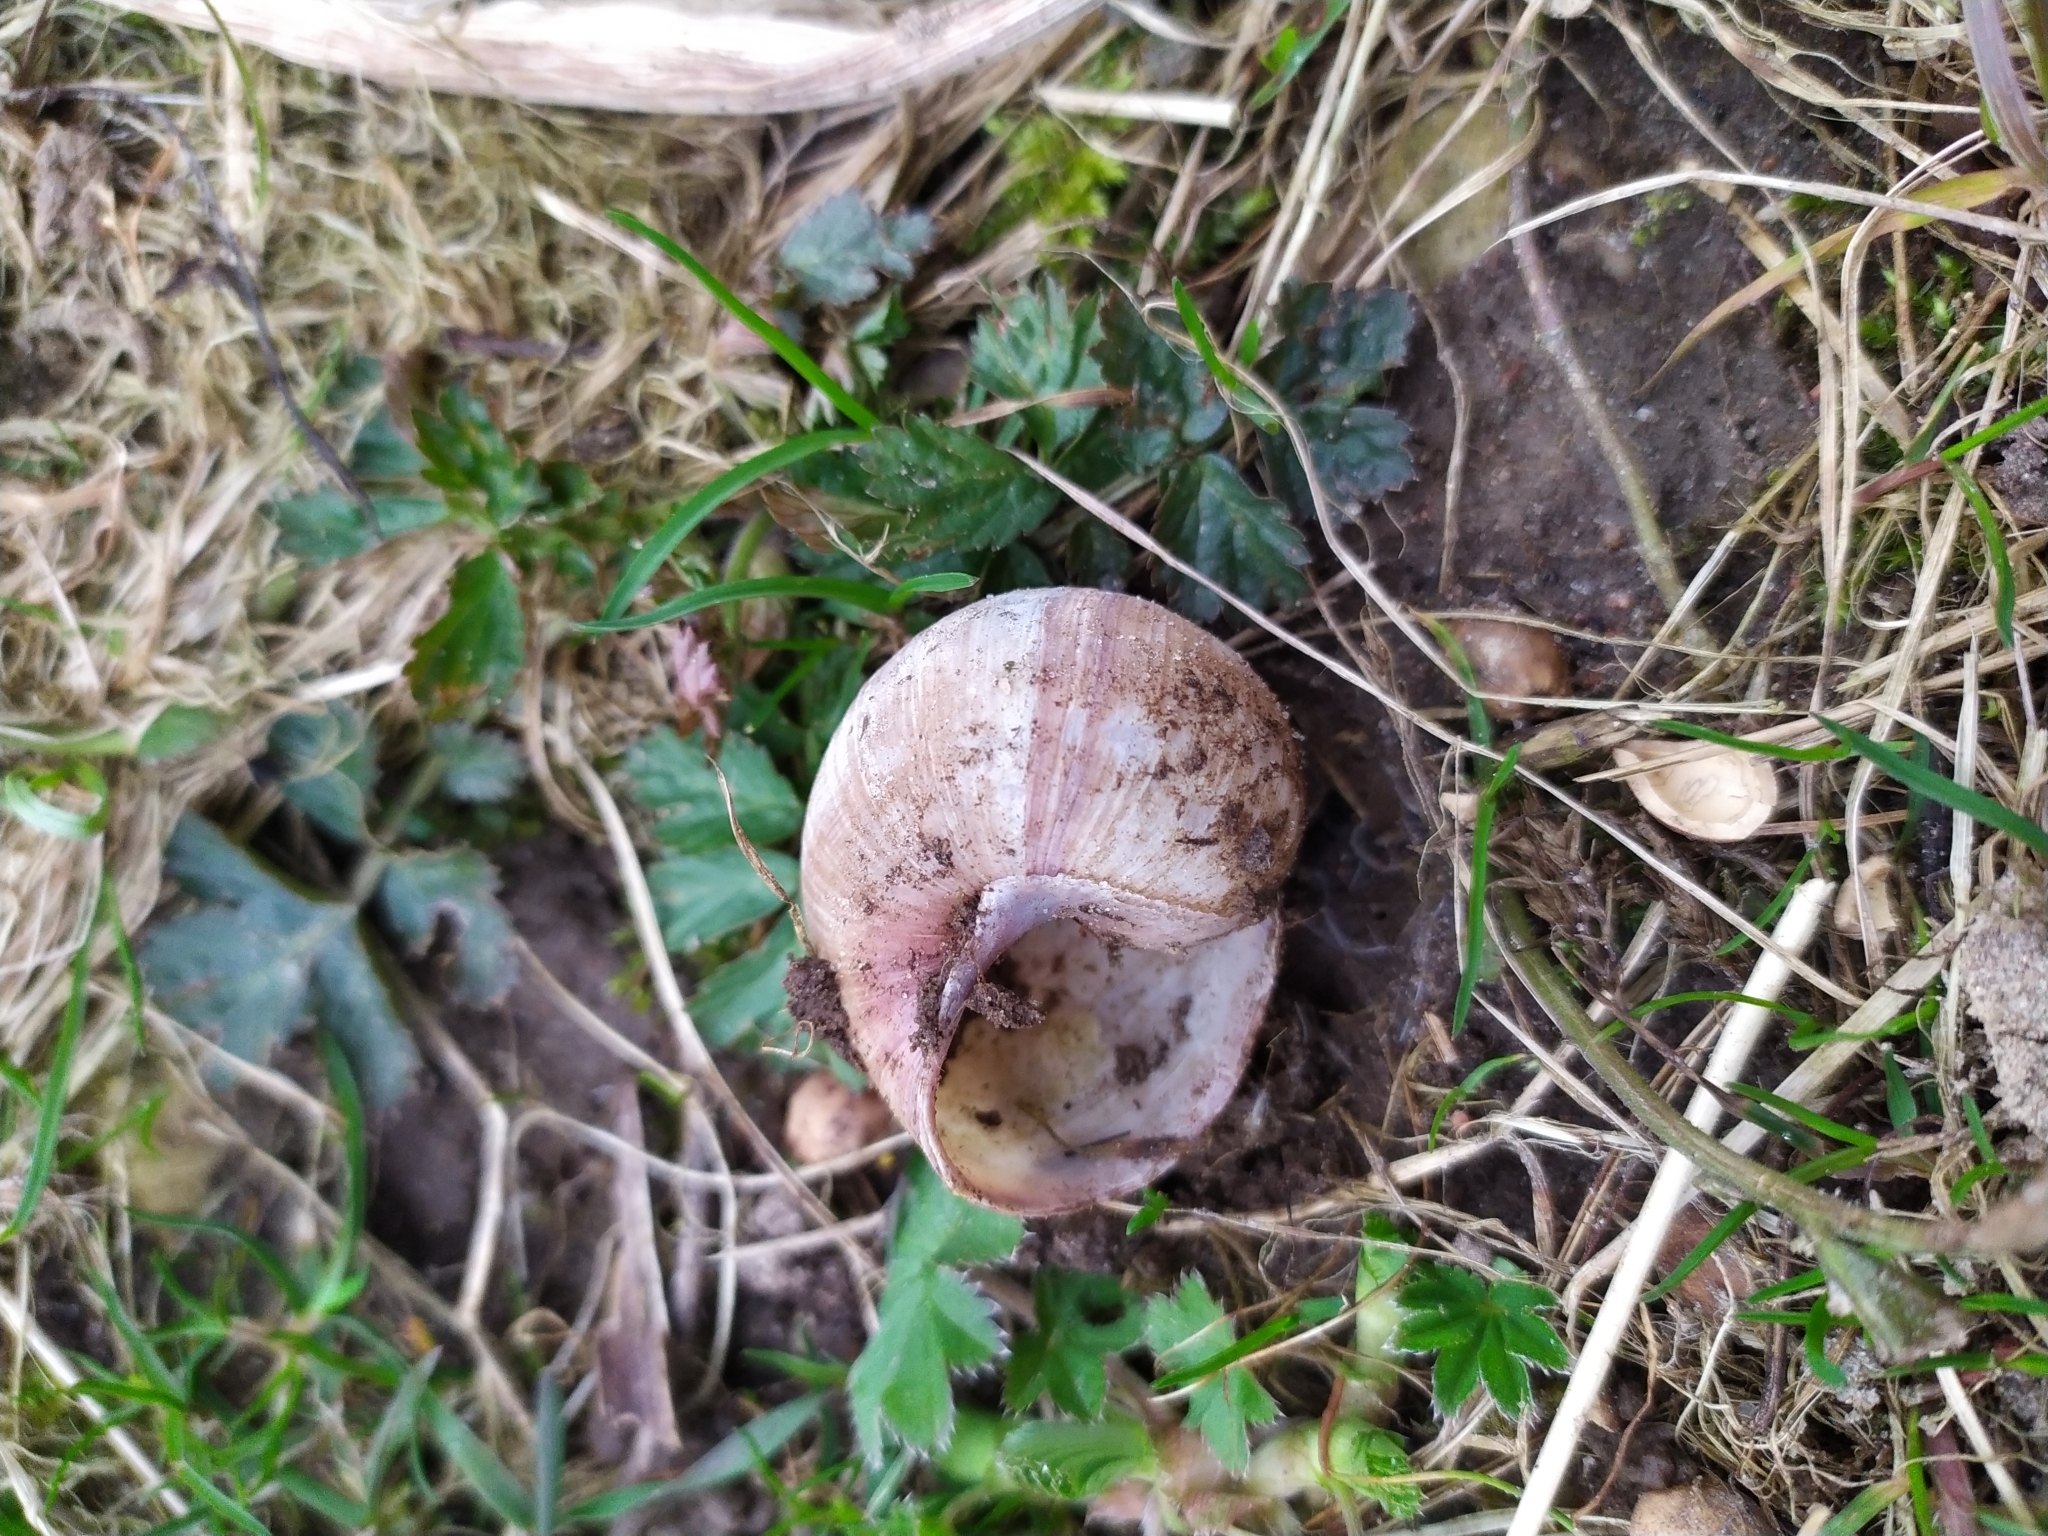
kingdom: Animalia
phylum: Mollusca
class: Gastropoda
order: Stylommatophora
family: Helicidae
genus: Helix
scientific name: Helix pomatia
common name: Roman snail
